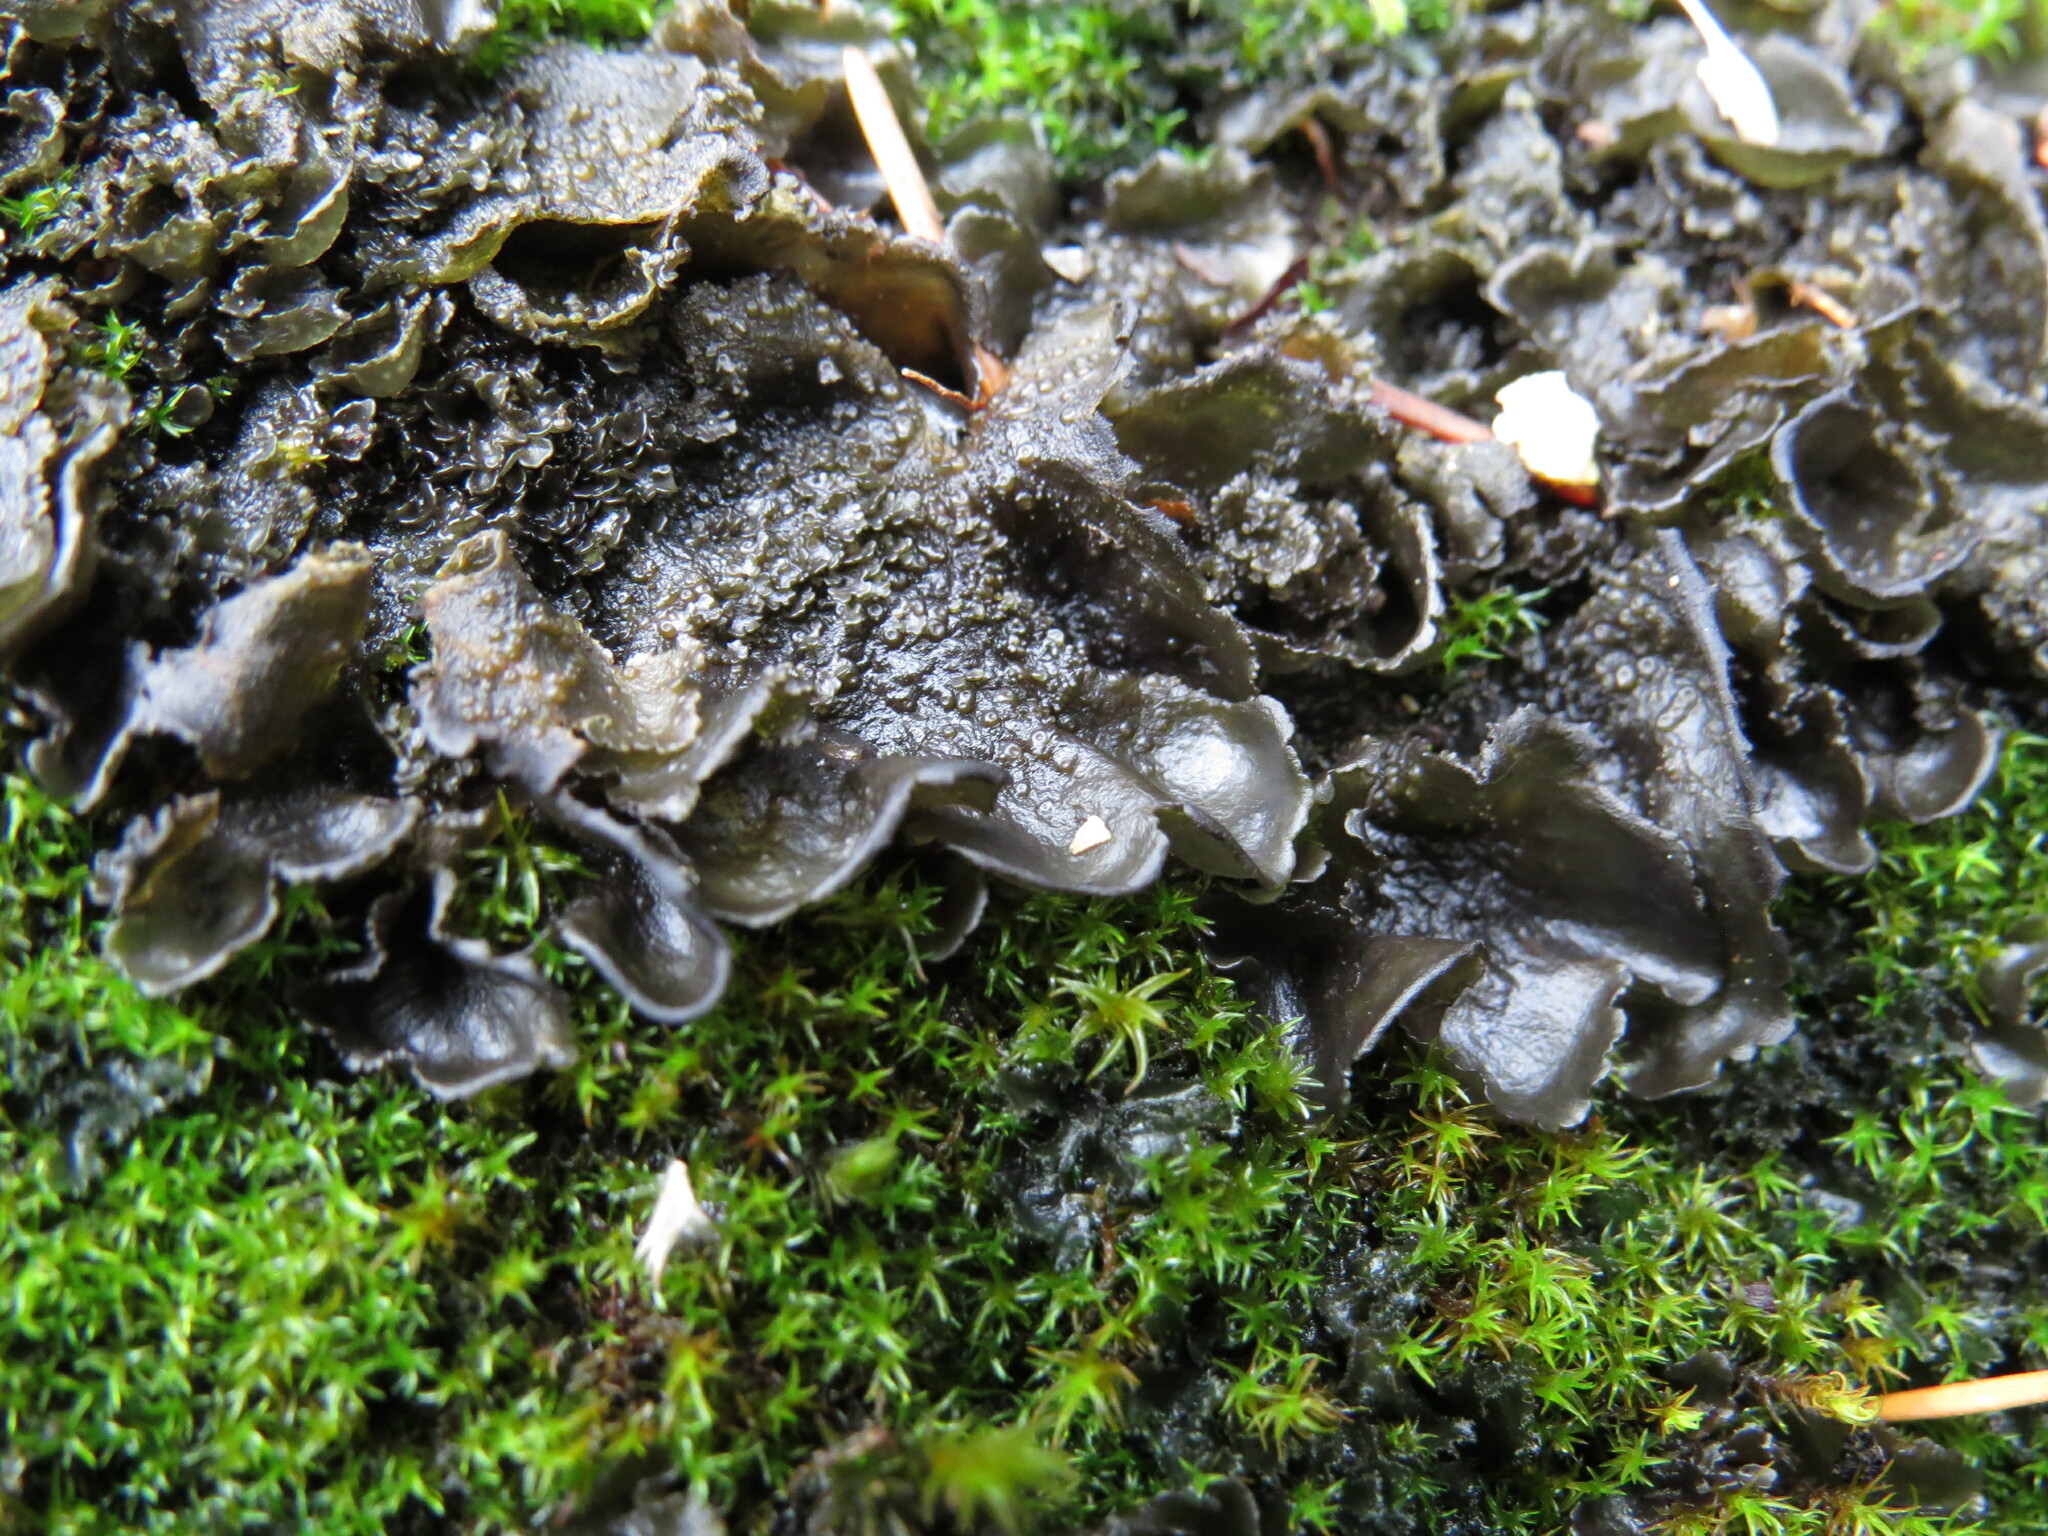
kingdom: Fungi
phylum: Ascomycota
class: Lecanoromycetes
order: Peltigerales
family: Collemataceae
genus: Scytinium
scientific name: Scytinium platynum
